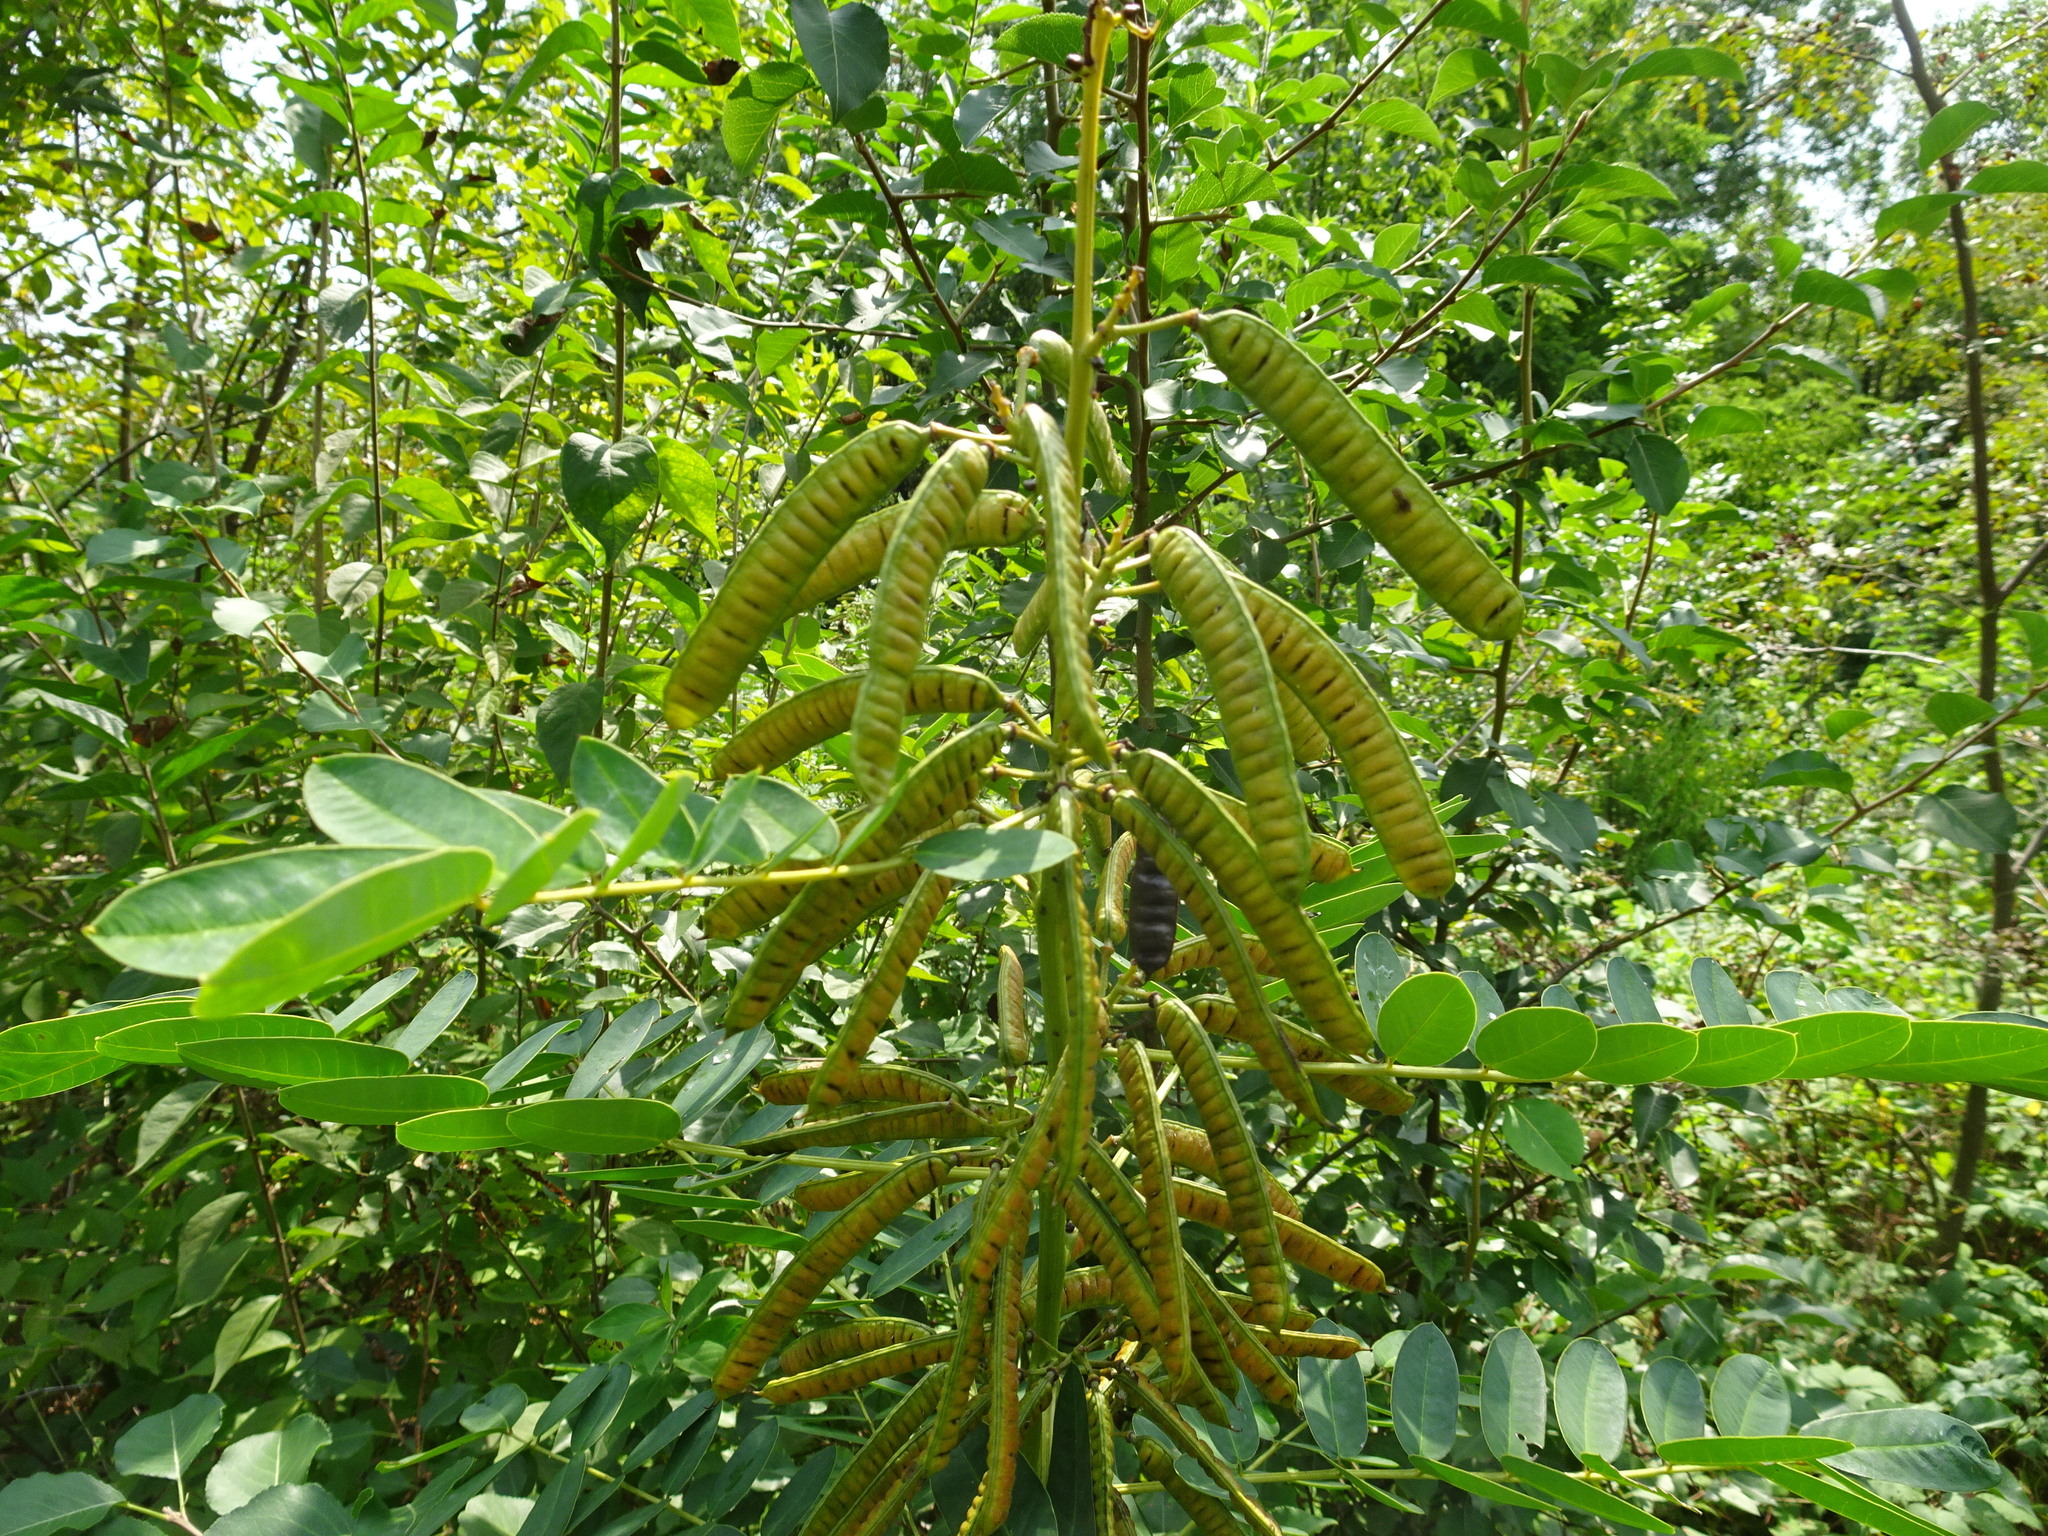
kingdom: Plantae
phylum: Tracheophyta
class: Magnoliopsida
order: Fabales
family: Fabaceae
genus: Senna
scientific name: Senna marilandica
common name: American senna
